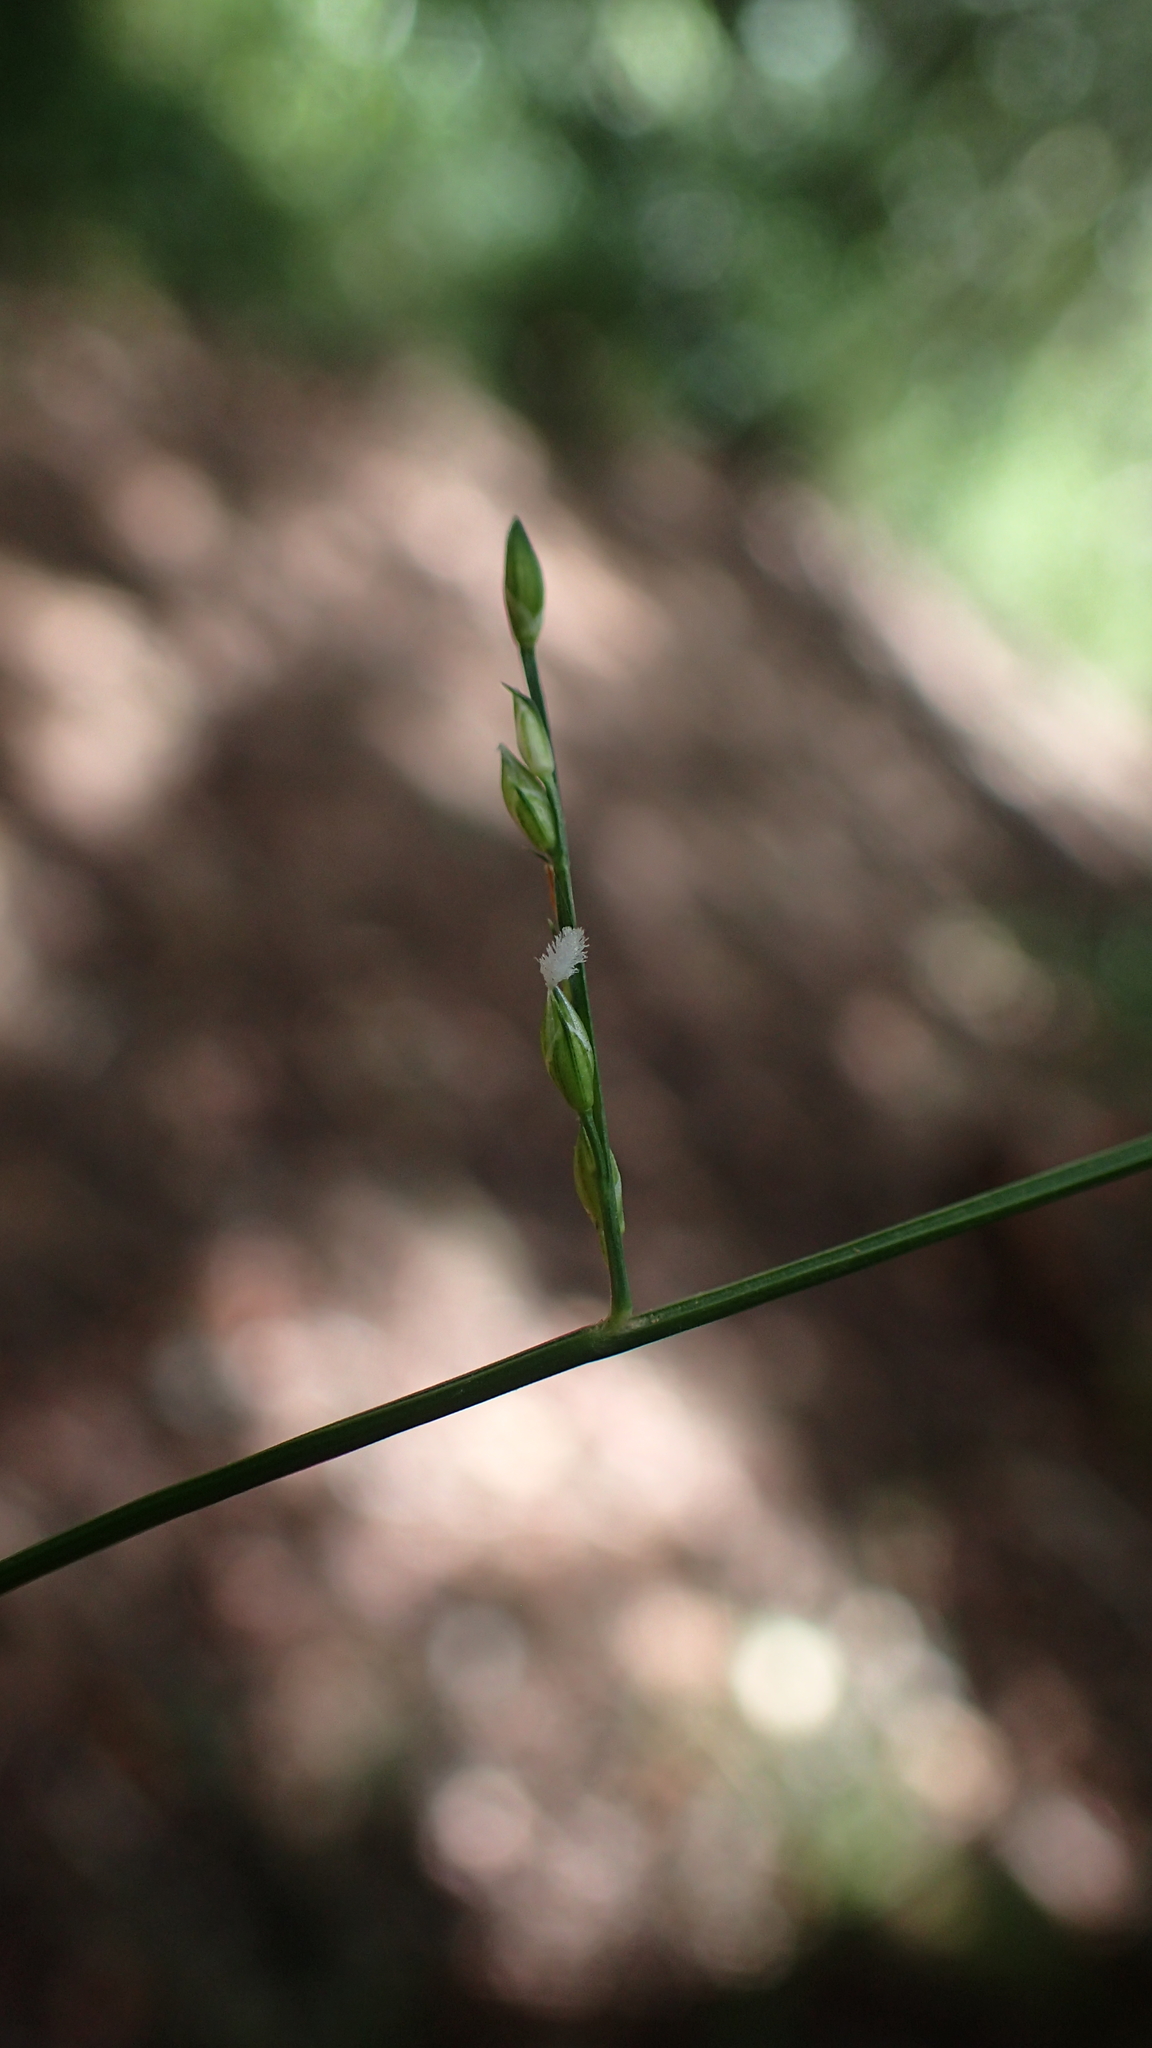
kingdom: Plantae
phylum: Tracheophyta
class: Liliopsida
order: Poales
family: Poaceae
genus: Acroceras
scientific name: Acroceras boivinii
